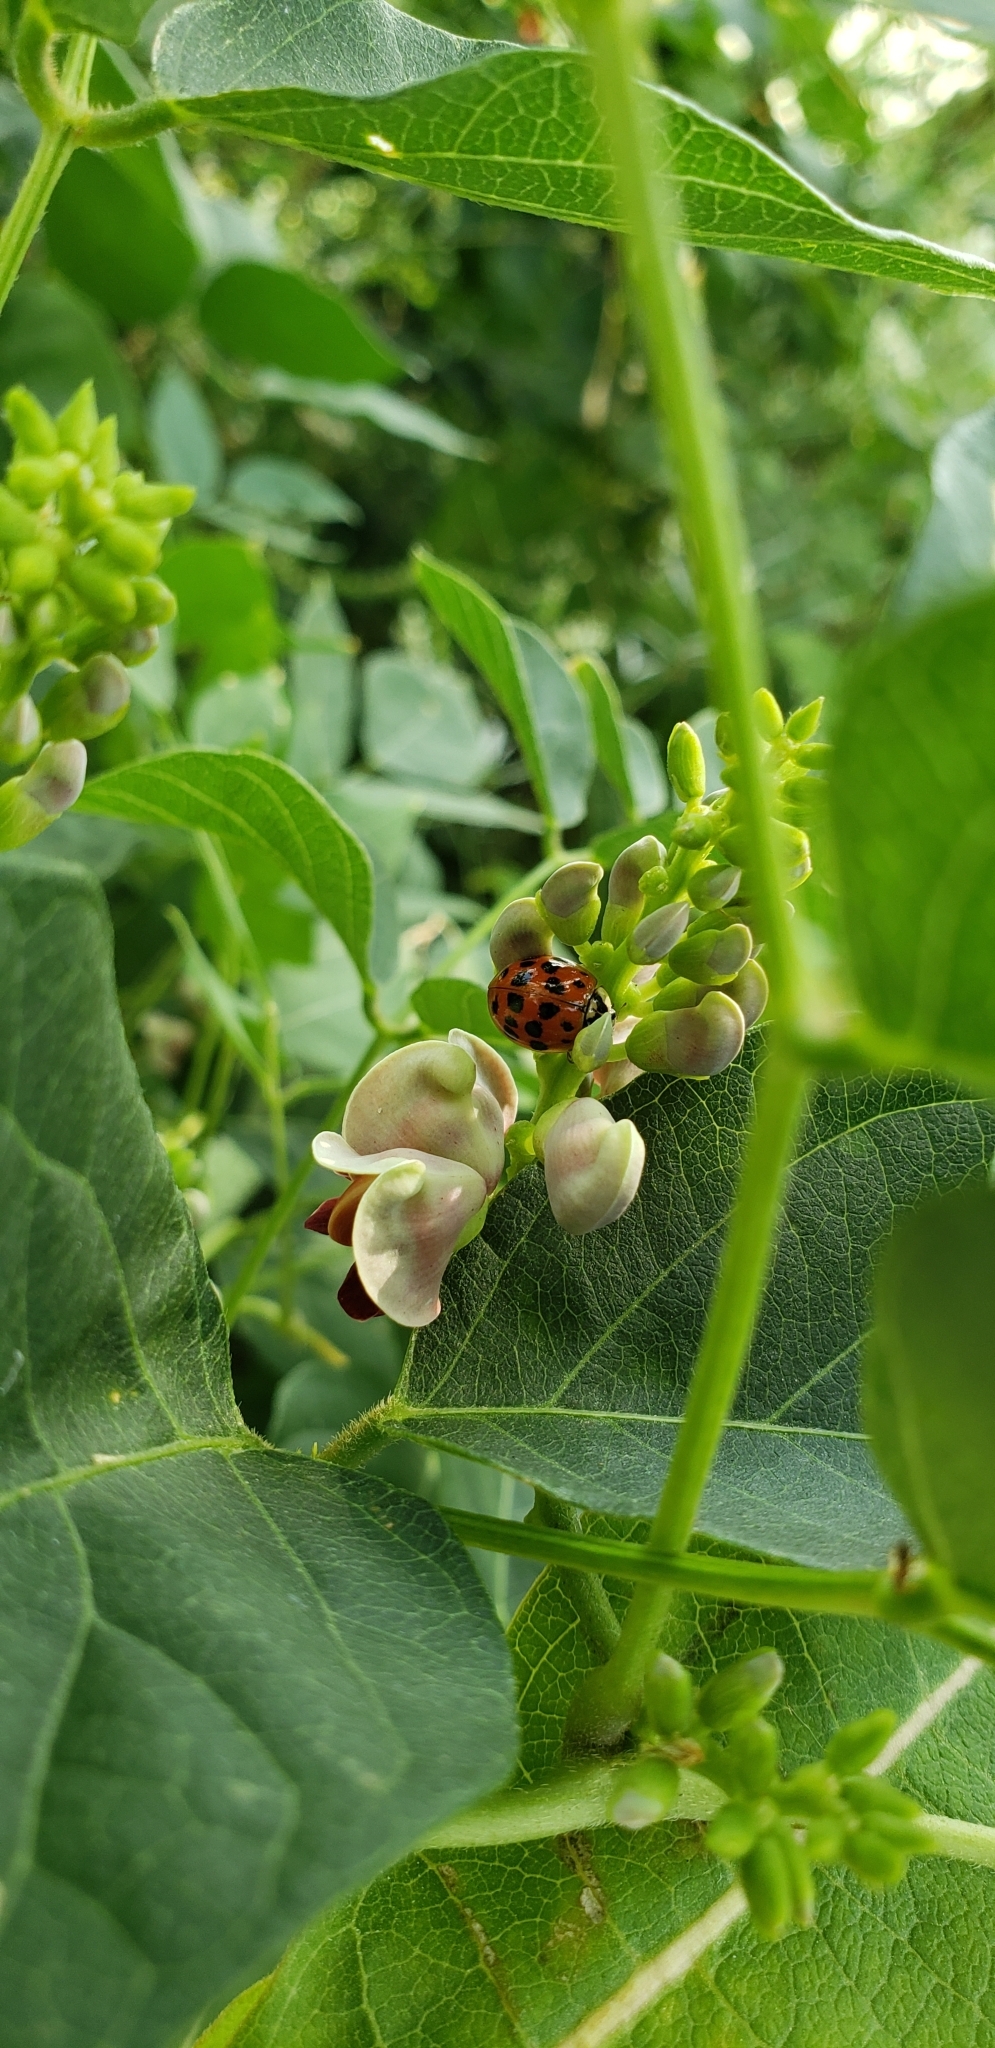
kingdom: Animalia
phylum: Arthropoda
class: Insecta
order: Coleoptera
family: Coccinellidae
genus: Harmonia
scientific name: Harmonia axyridis
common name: Harlequin ladybird
